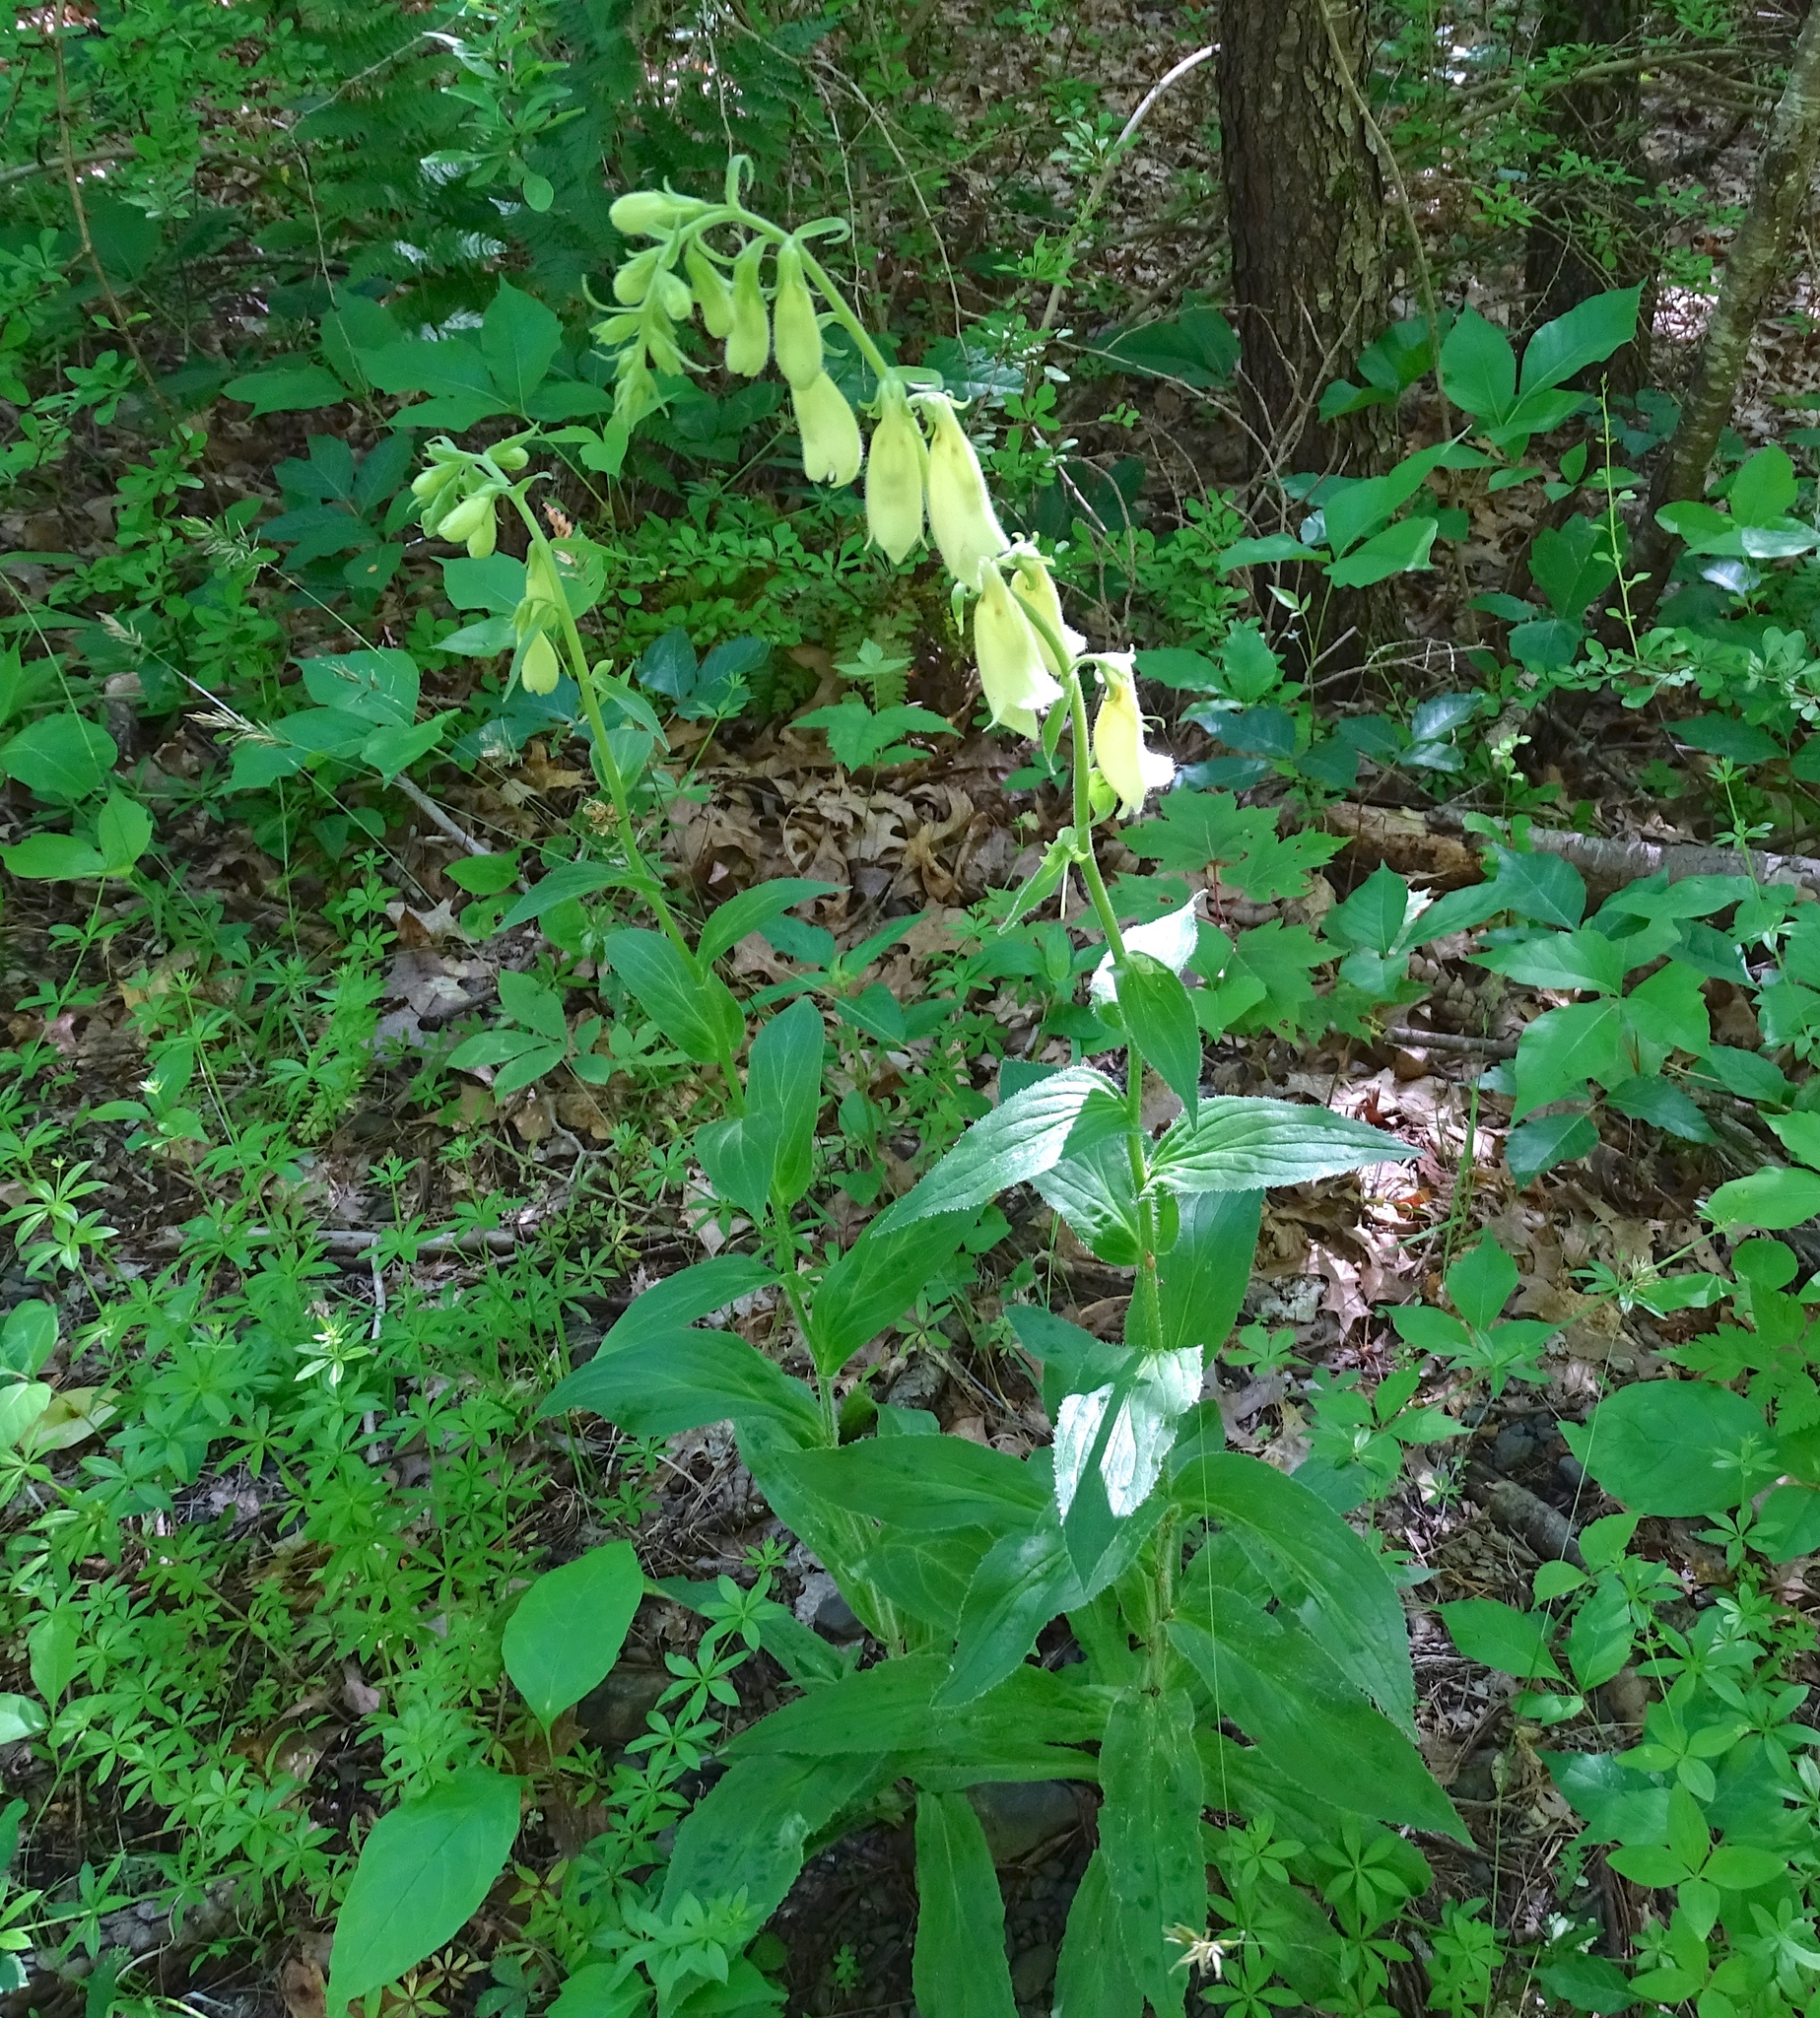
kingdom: Plantae
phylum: Tracheophyta
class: Magnoliopsida
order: Lamiales
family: Plantaginaceae
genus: Digitalis
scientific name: Digitalis grandiflora
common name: Yellow foxglove
